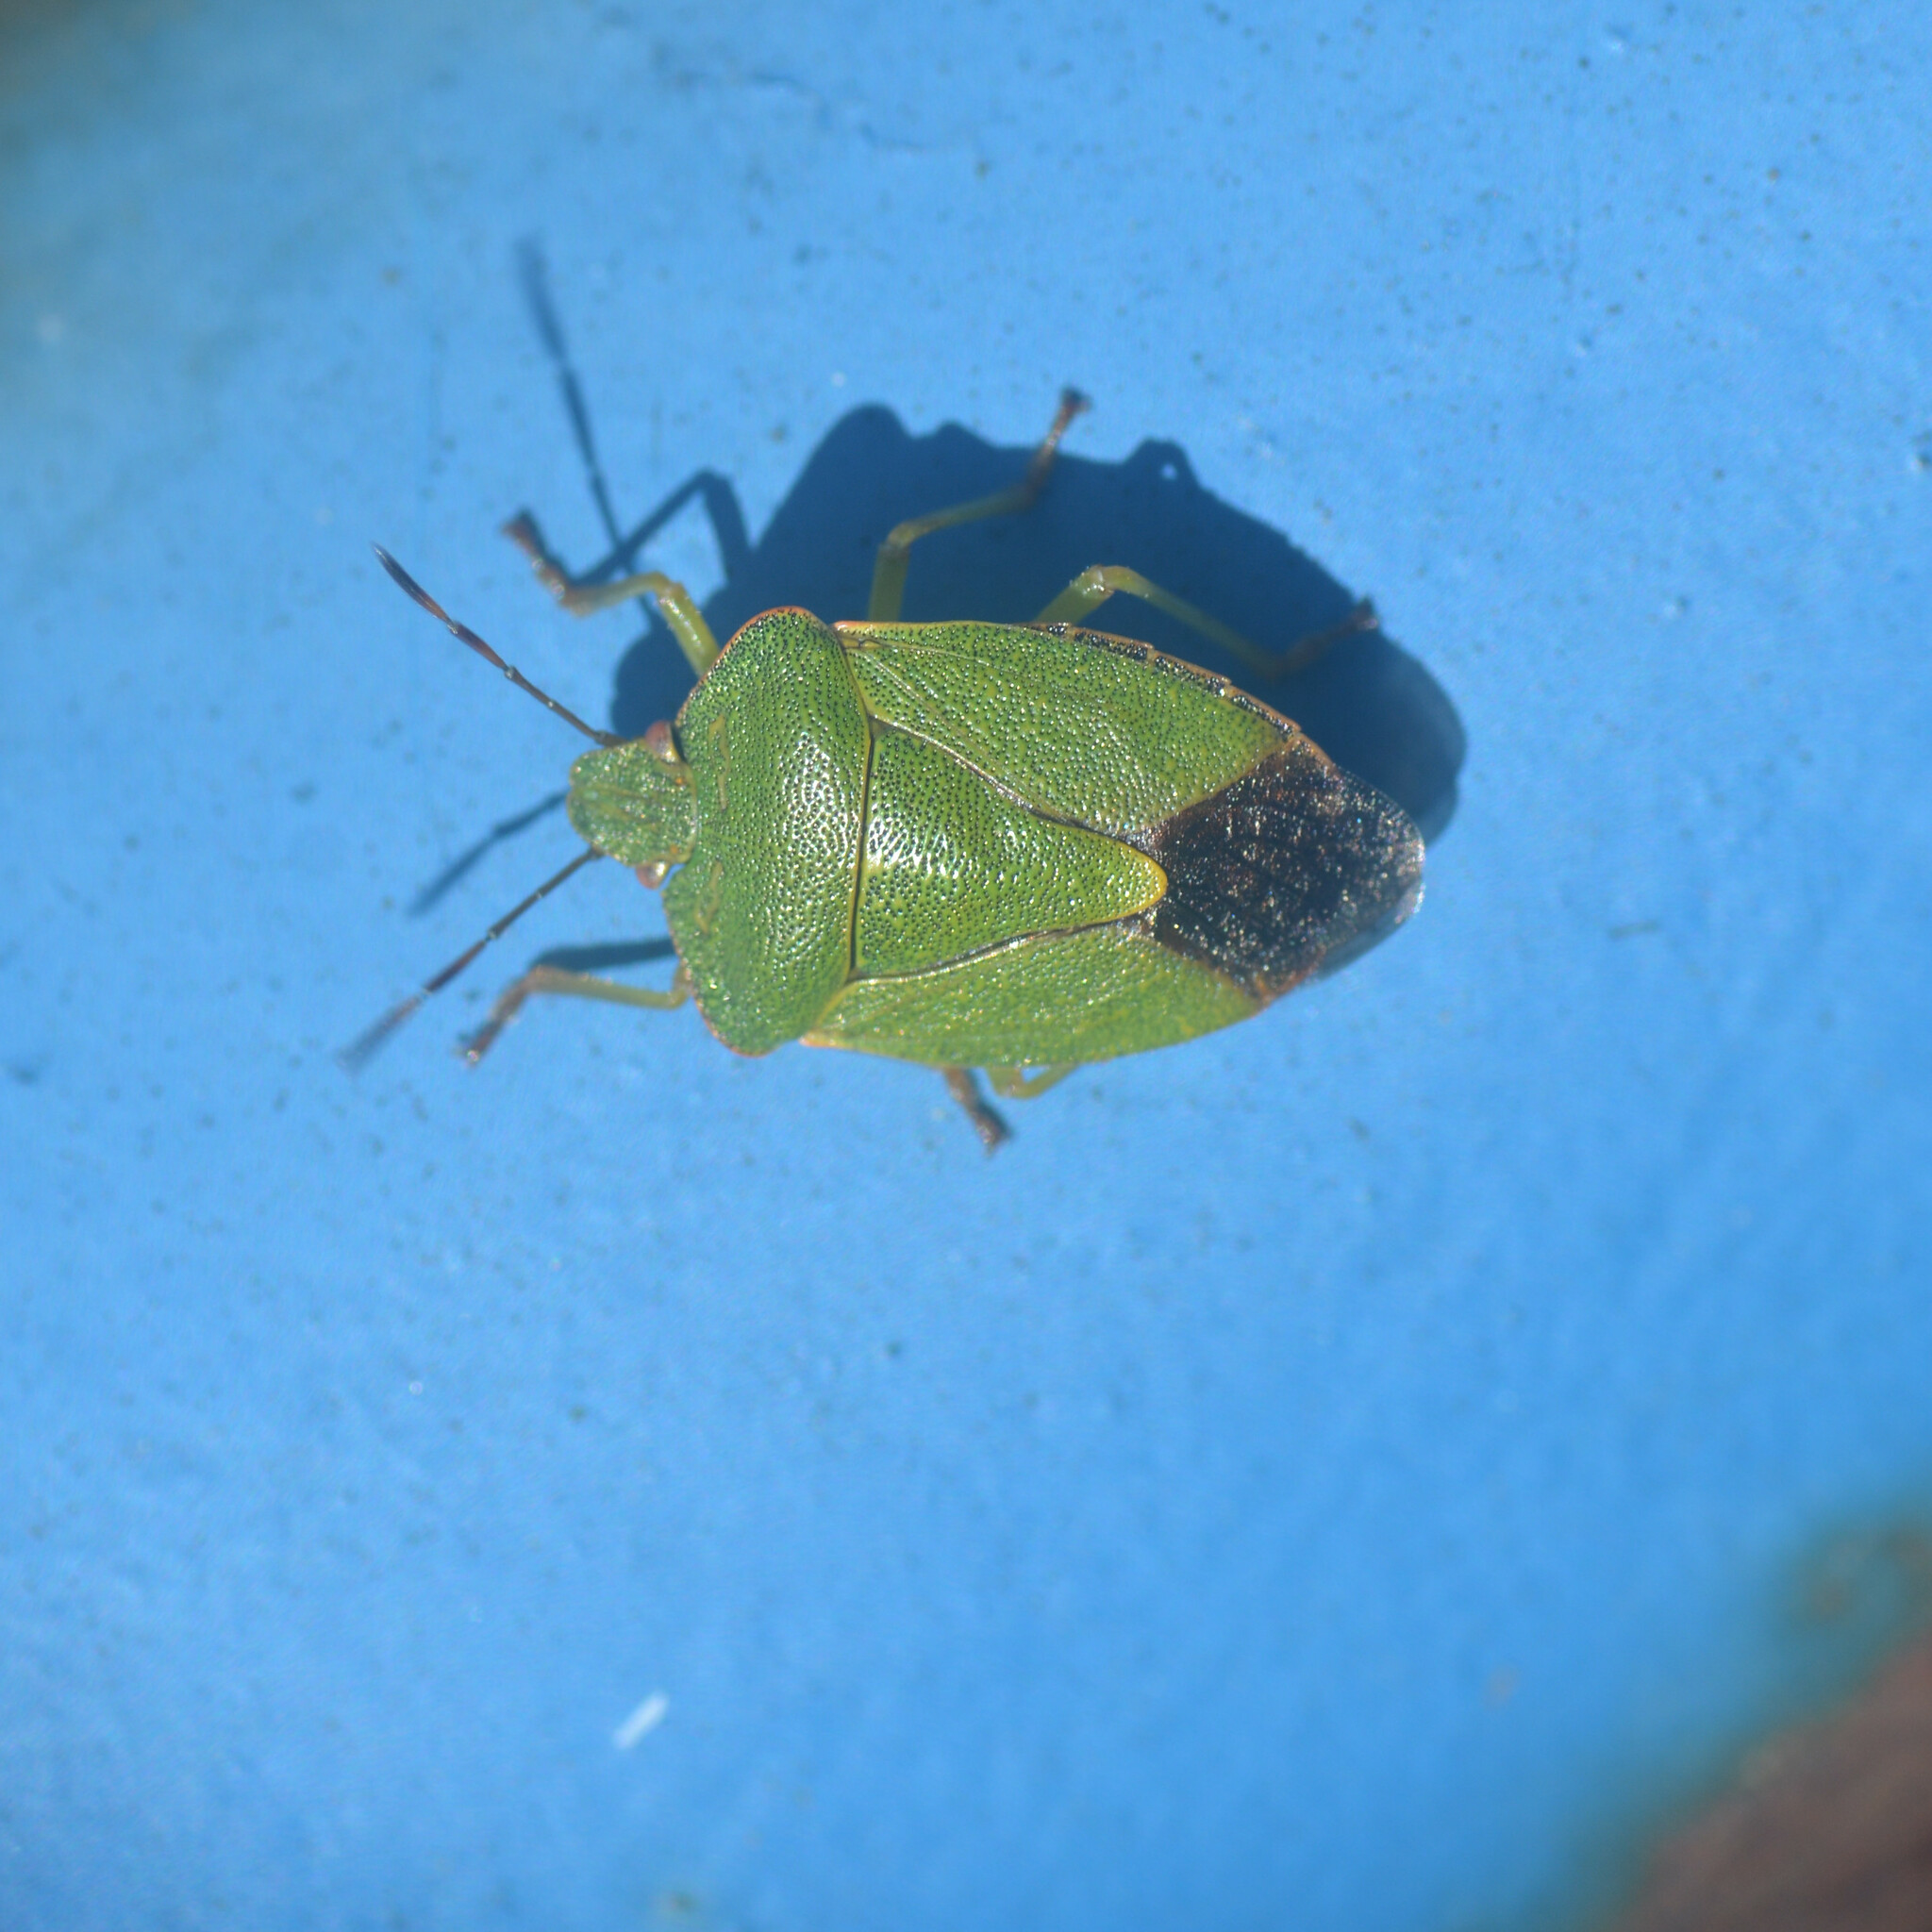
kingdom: Animalia
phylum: Arthropoda
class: Insecta
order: Hemiptera
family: Pentatomidae
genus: Palomena
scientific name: Palomena prasina
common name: Green shieldbug
